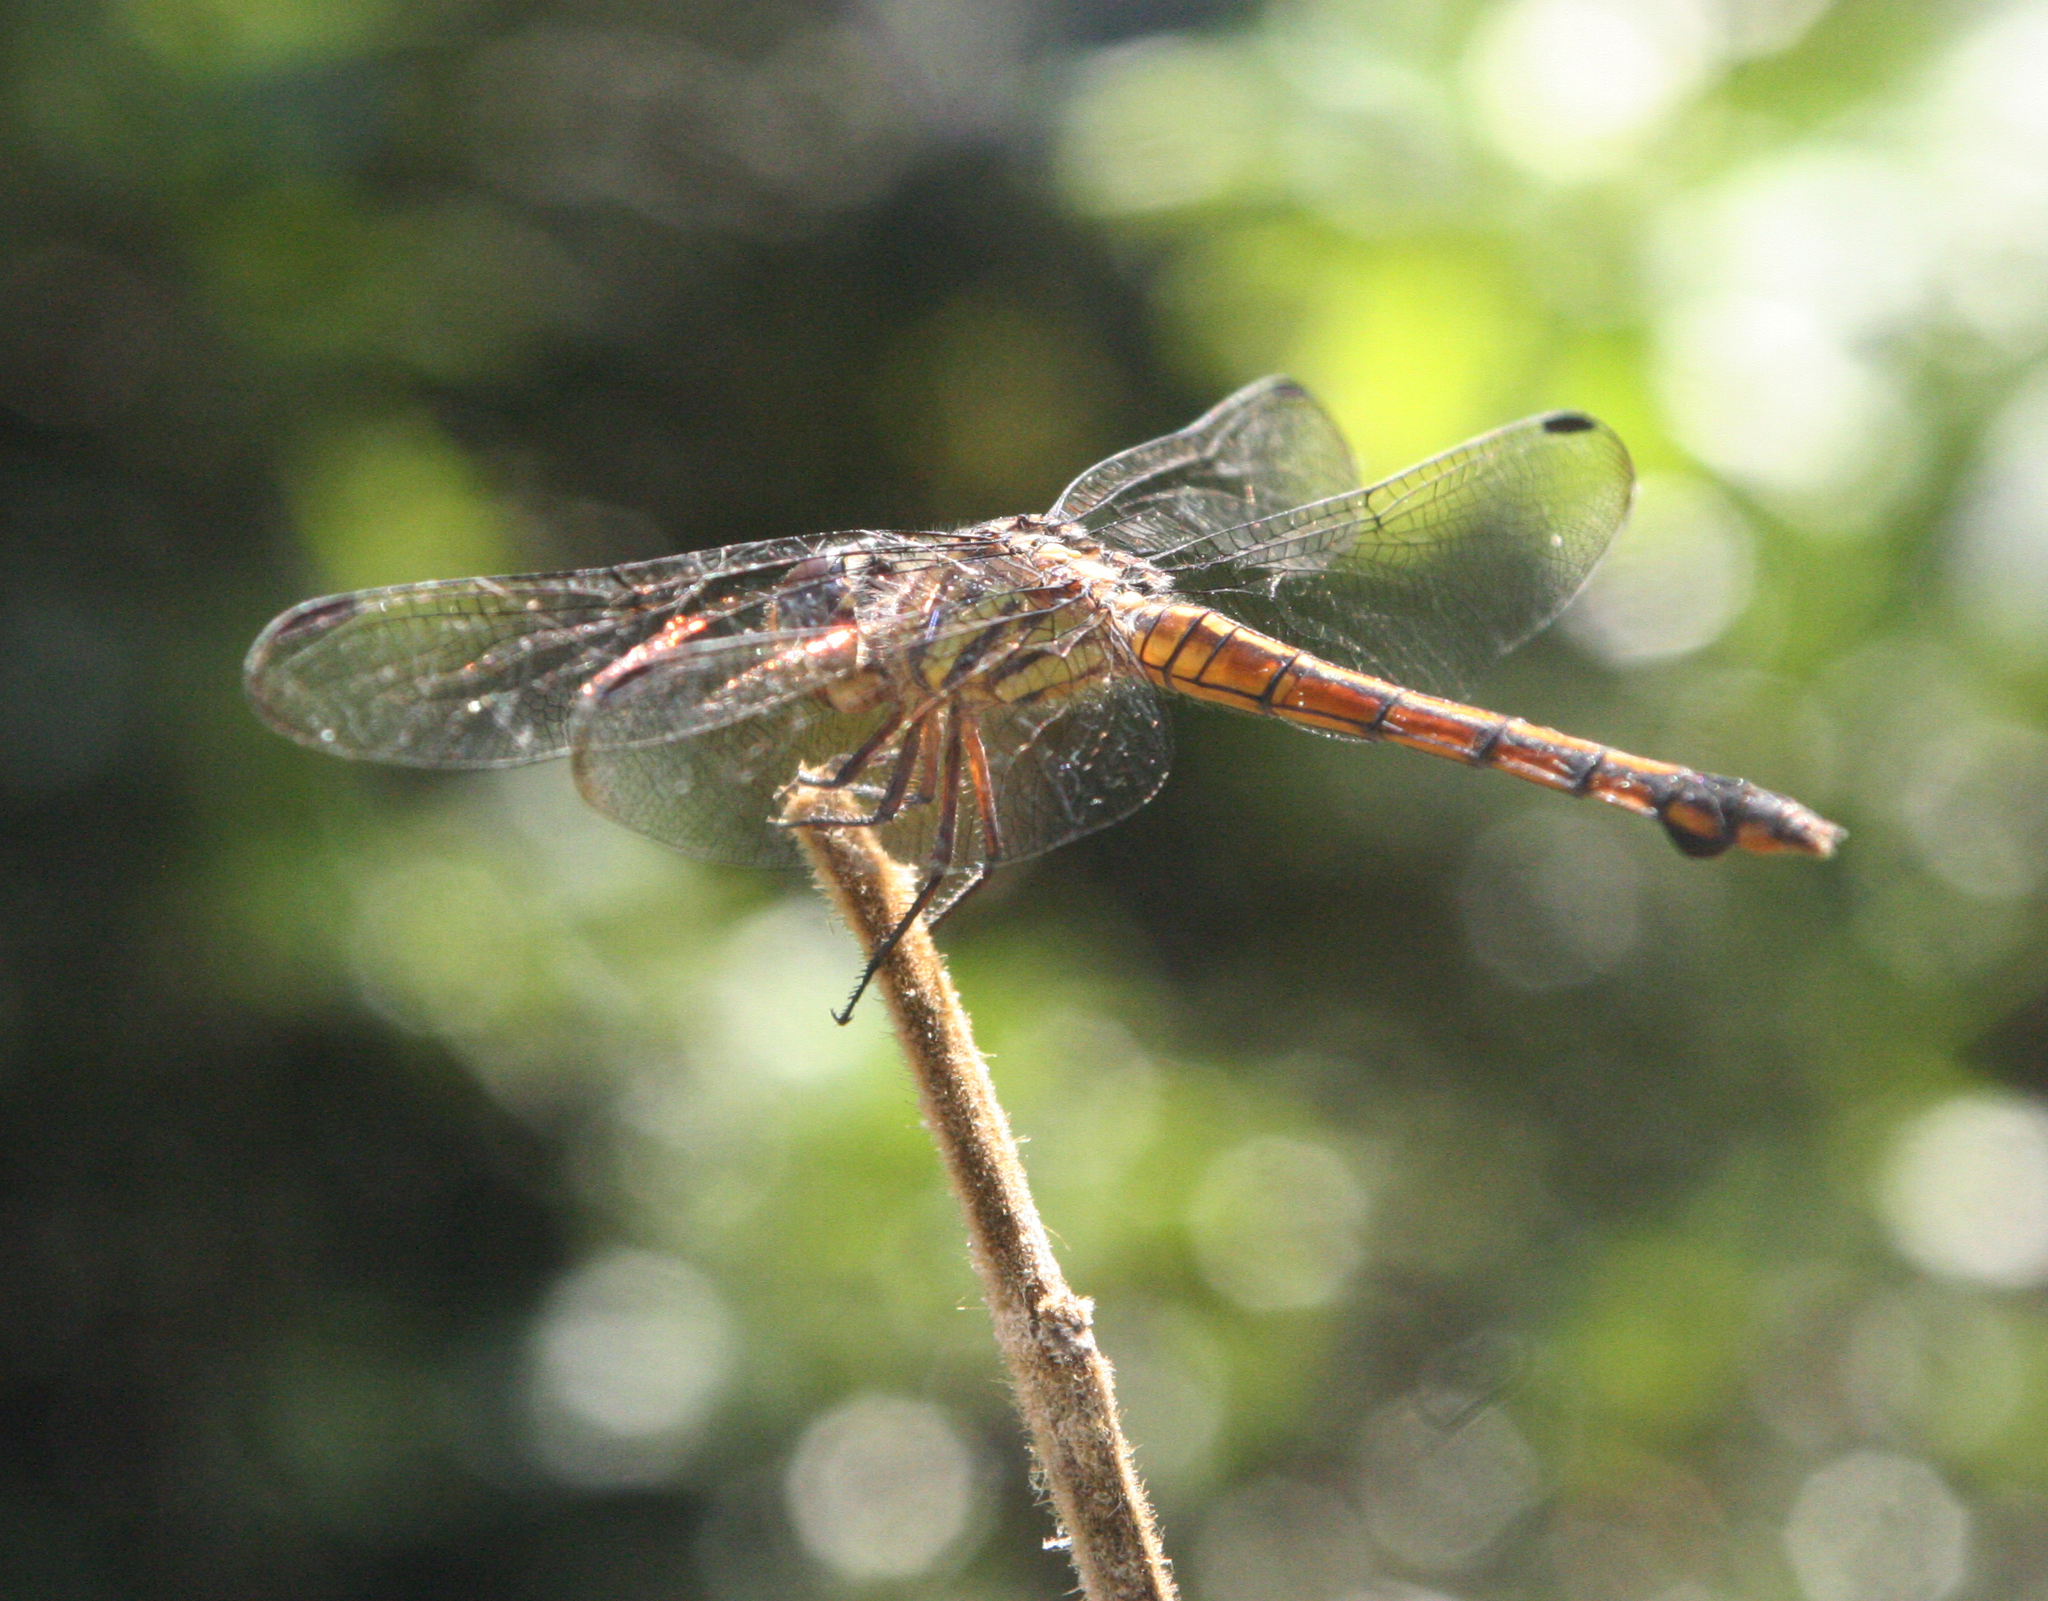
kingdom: Animalia
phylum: Arthropoda
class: Insecta
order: Odonata
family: Libellulidae
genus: Potamarcha
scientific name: Potamarcha congener
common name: Blue chaser
